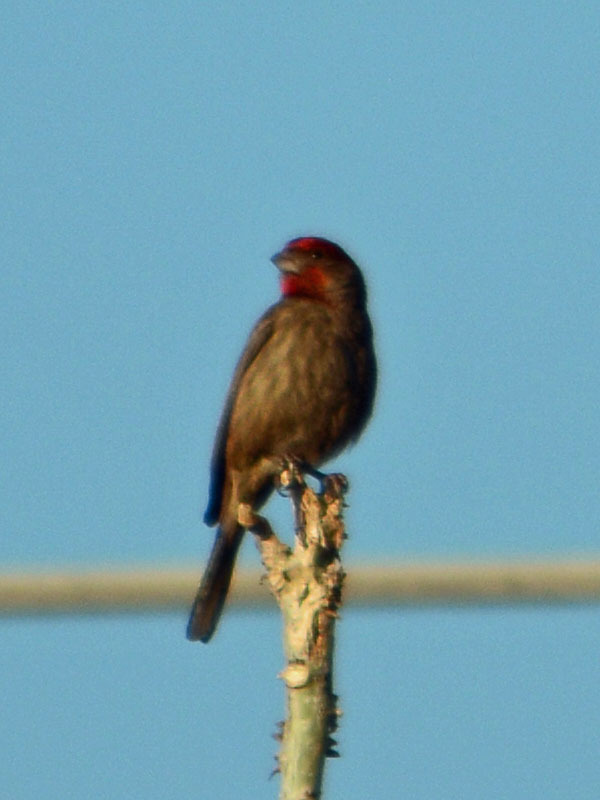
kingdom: Animalia
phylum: Chordata
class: Aves
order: Passeriformes
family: Fringillidae
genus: Haemorhous
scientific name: Haemorhous mexicanus
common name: House finch
